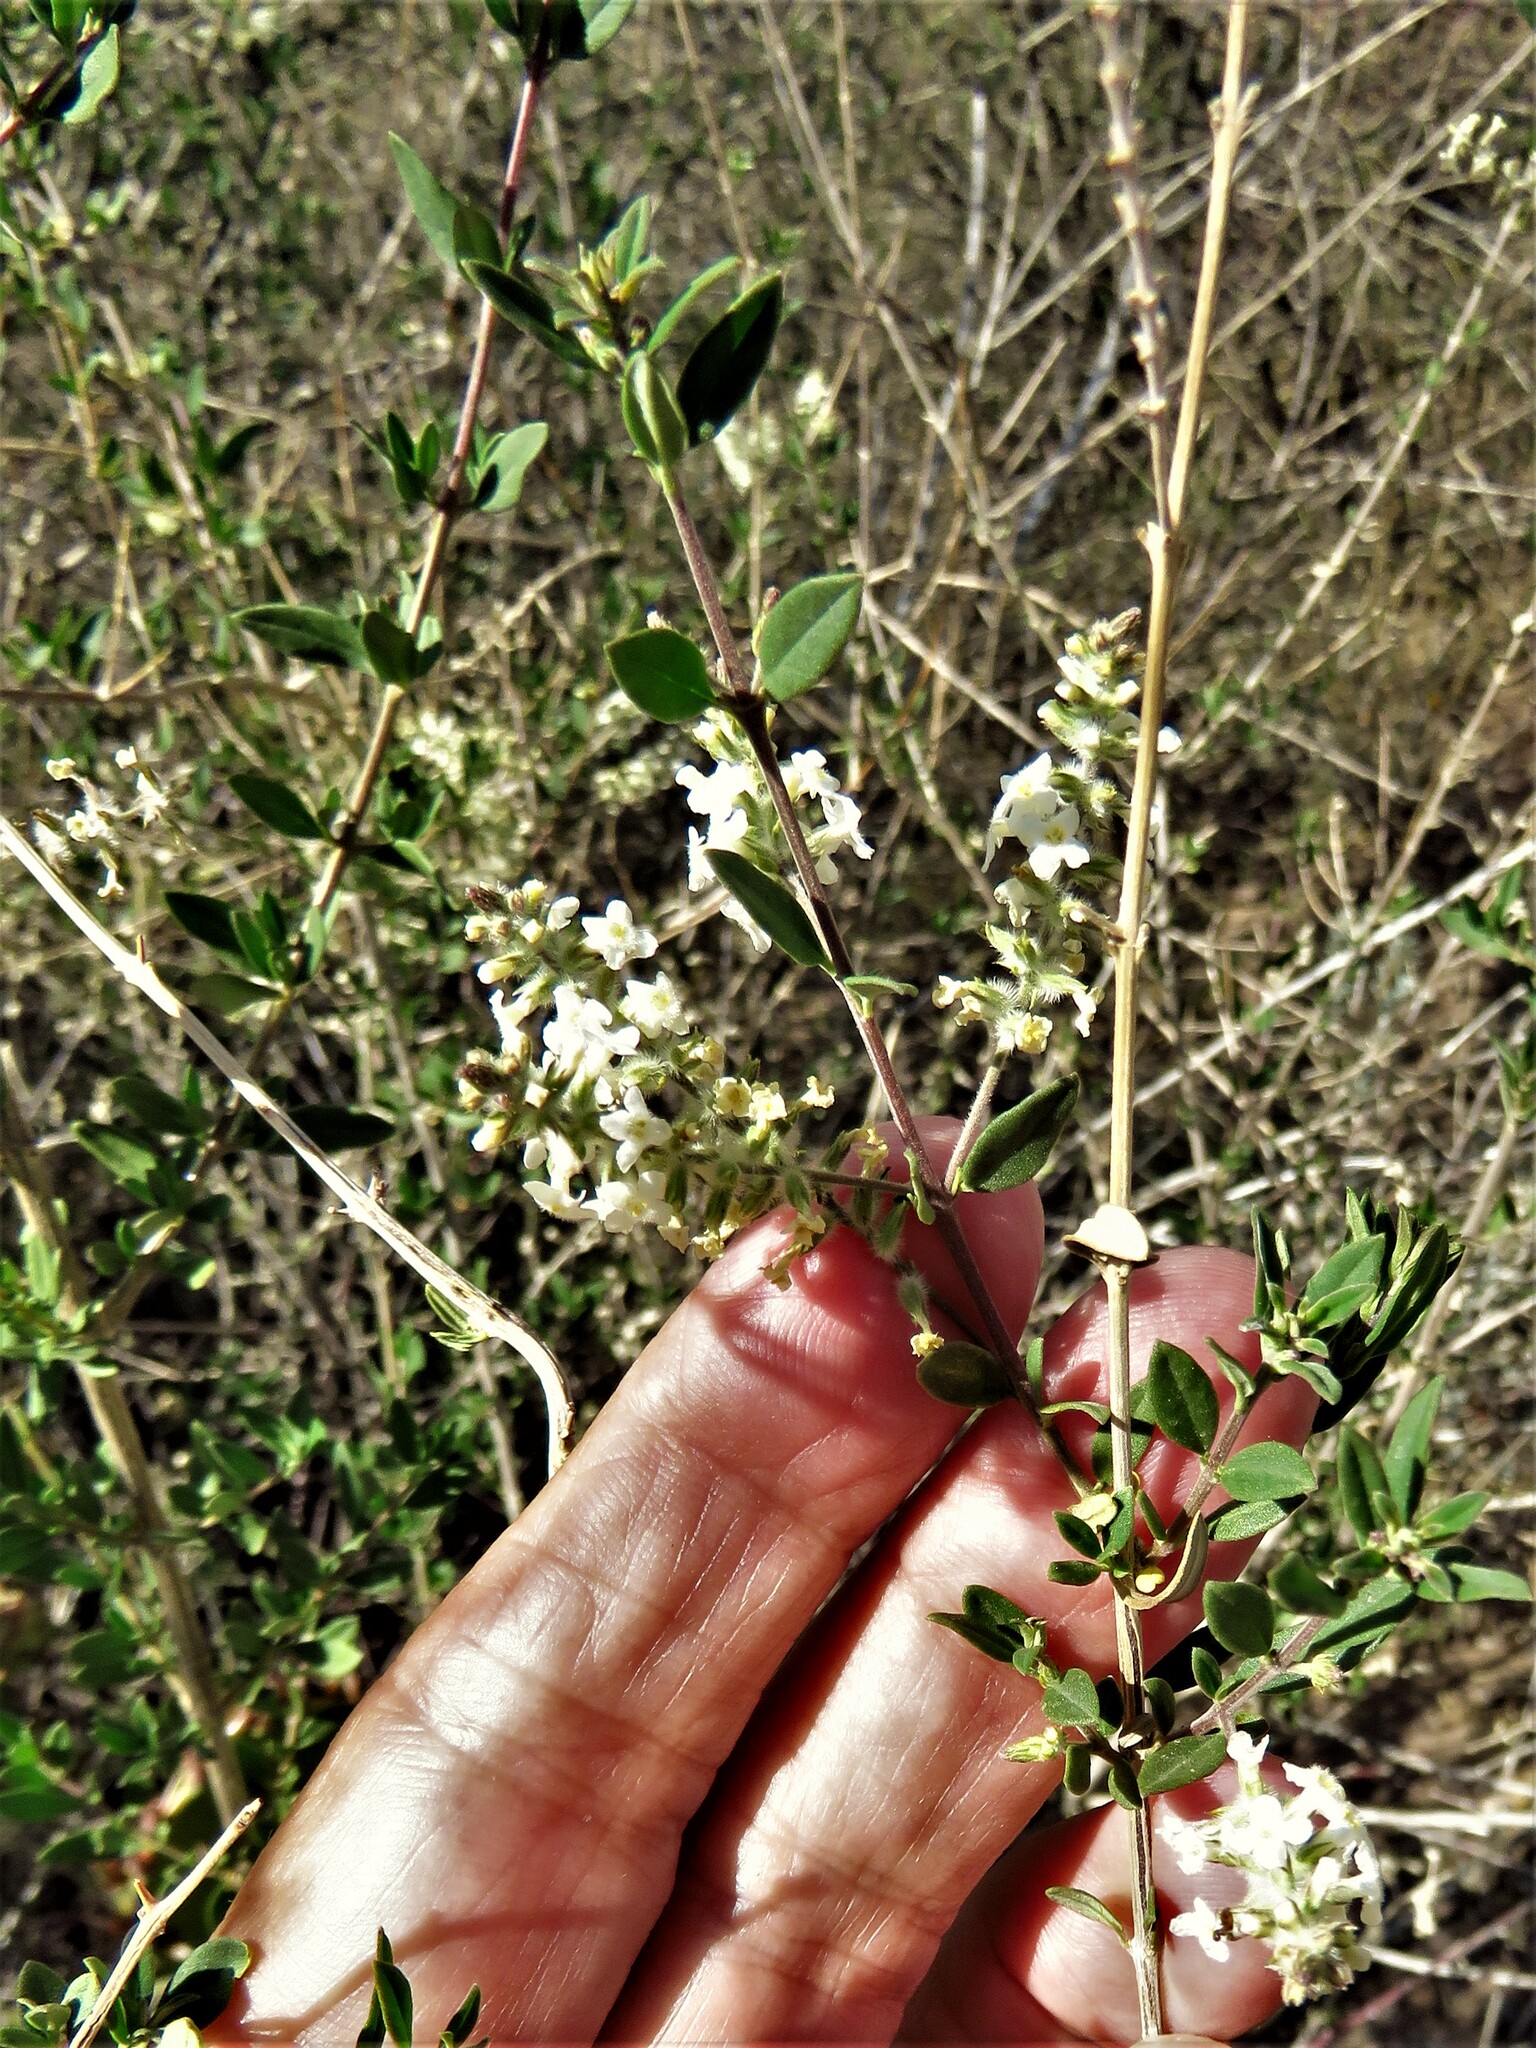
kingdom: Plantae
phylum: Tracheophyta
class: Magnoliopsida
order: Lamiales
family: Verbenaceae
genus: Aloysia
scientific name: Aloysia gratissima
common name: Common bee-brush
